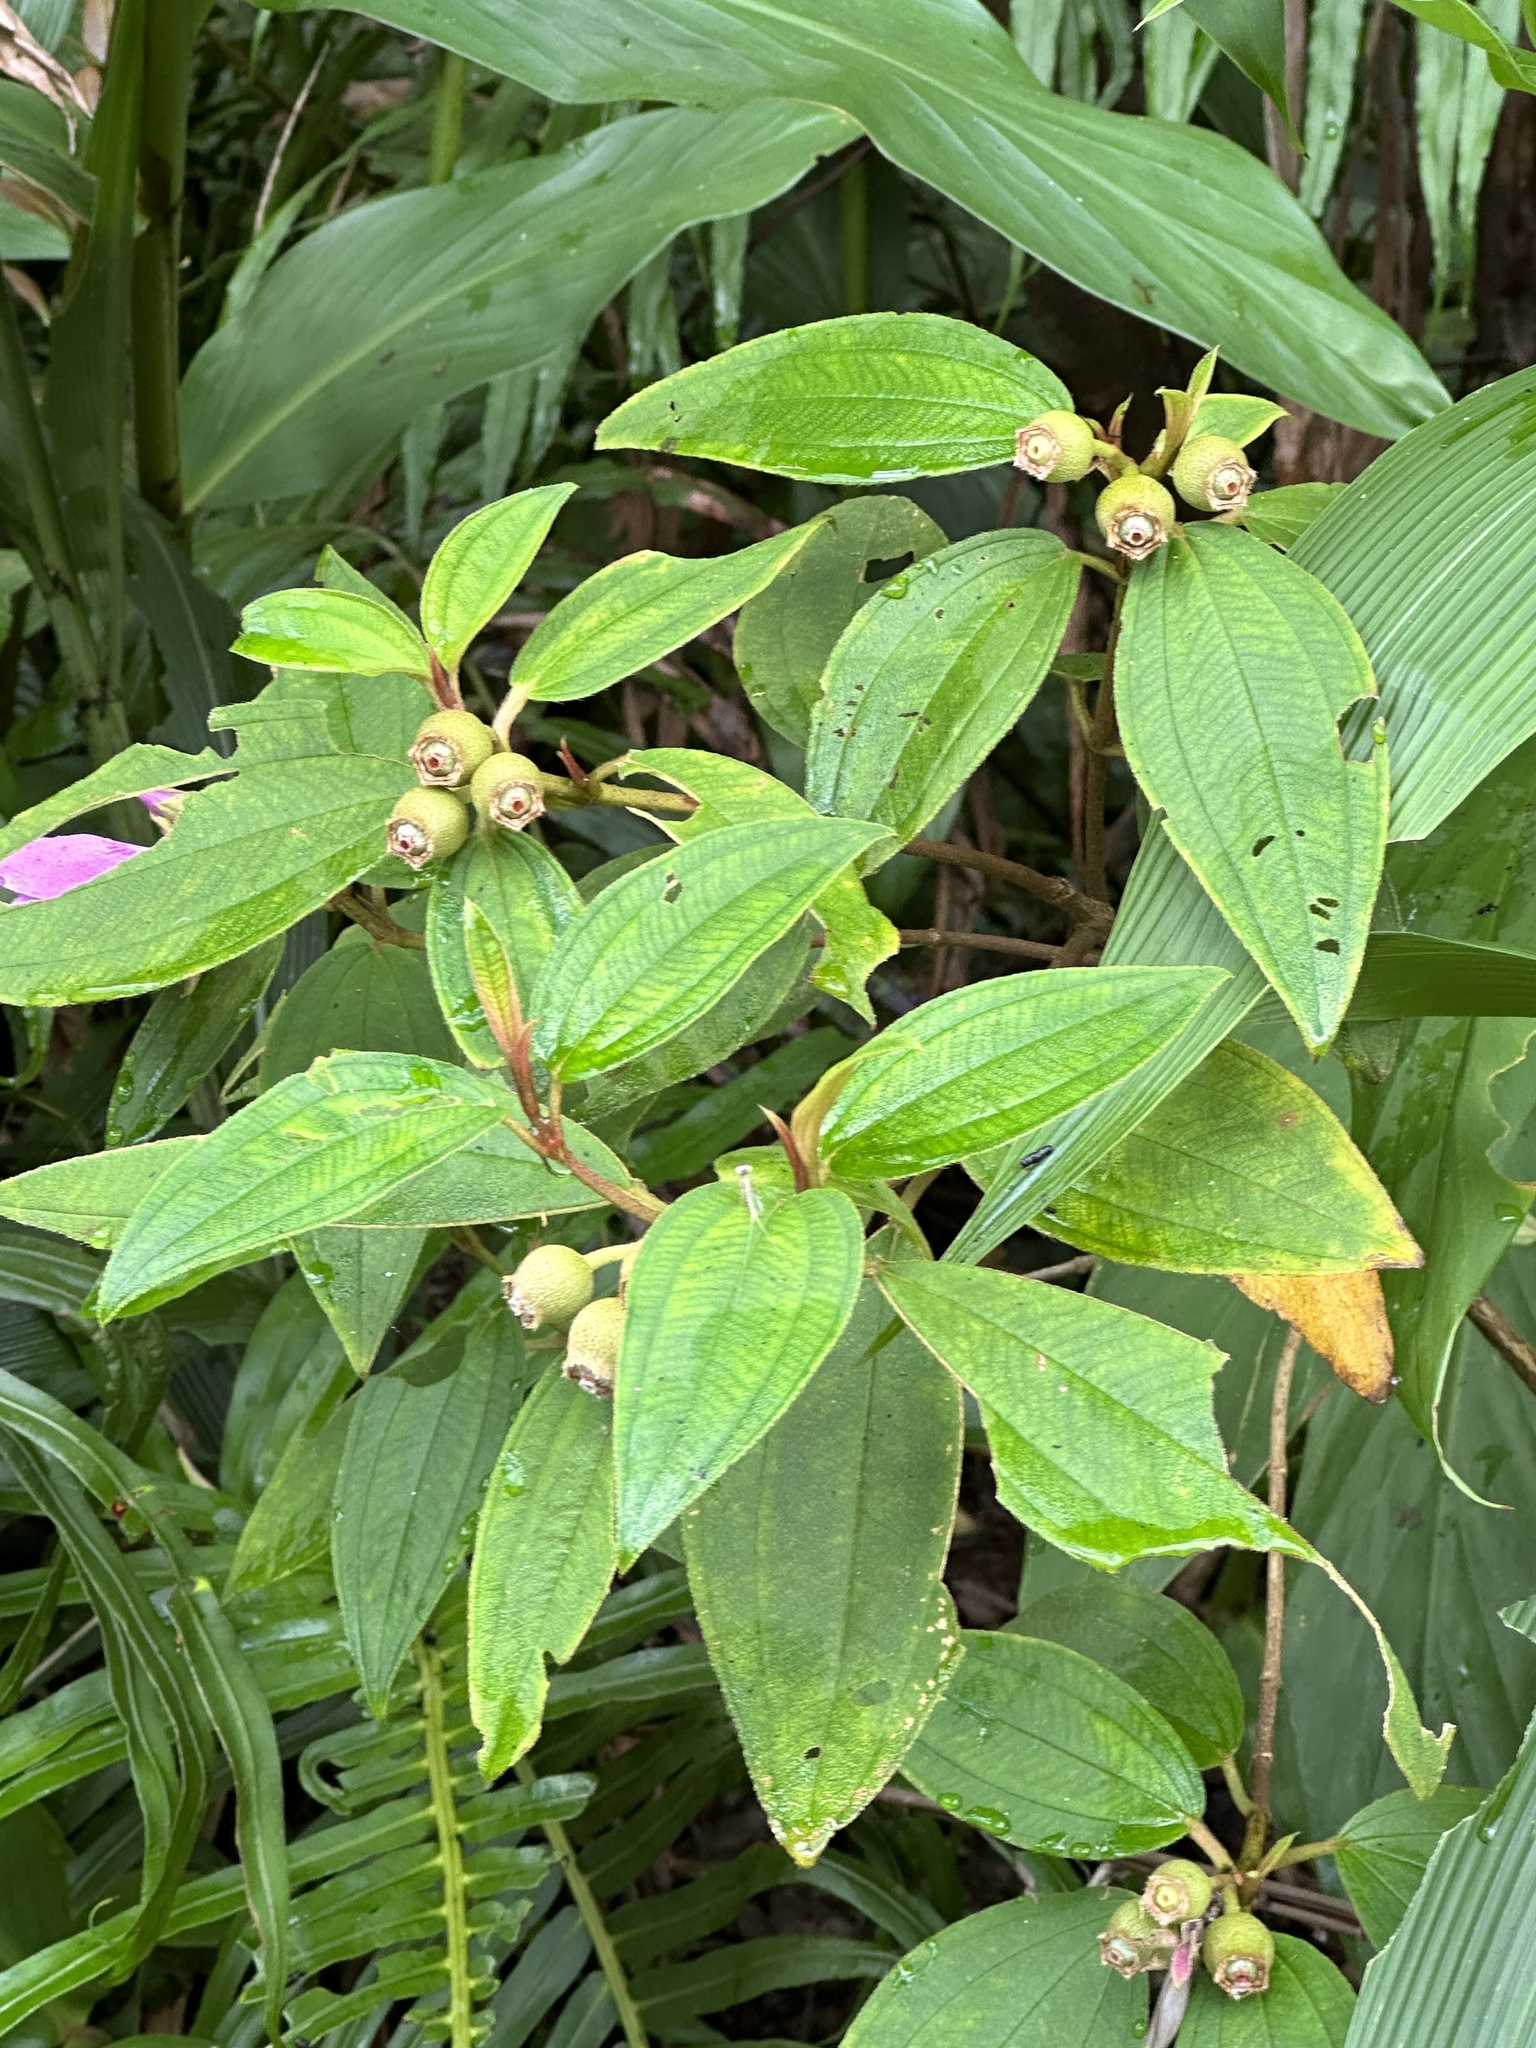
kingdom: Plantae
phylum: Tracheophyta
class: Magnoliopsida
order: Myrtales
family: Melastomataceae
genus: Melastoma
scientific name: Melastoma malabathricum
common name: Indian-rhododendron
